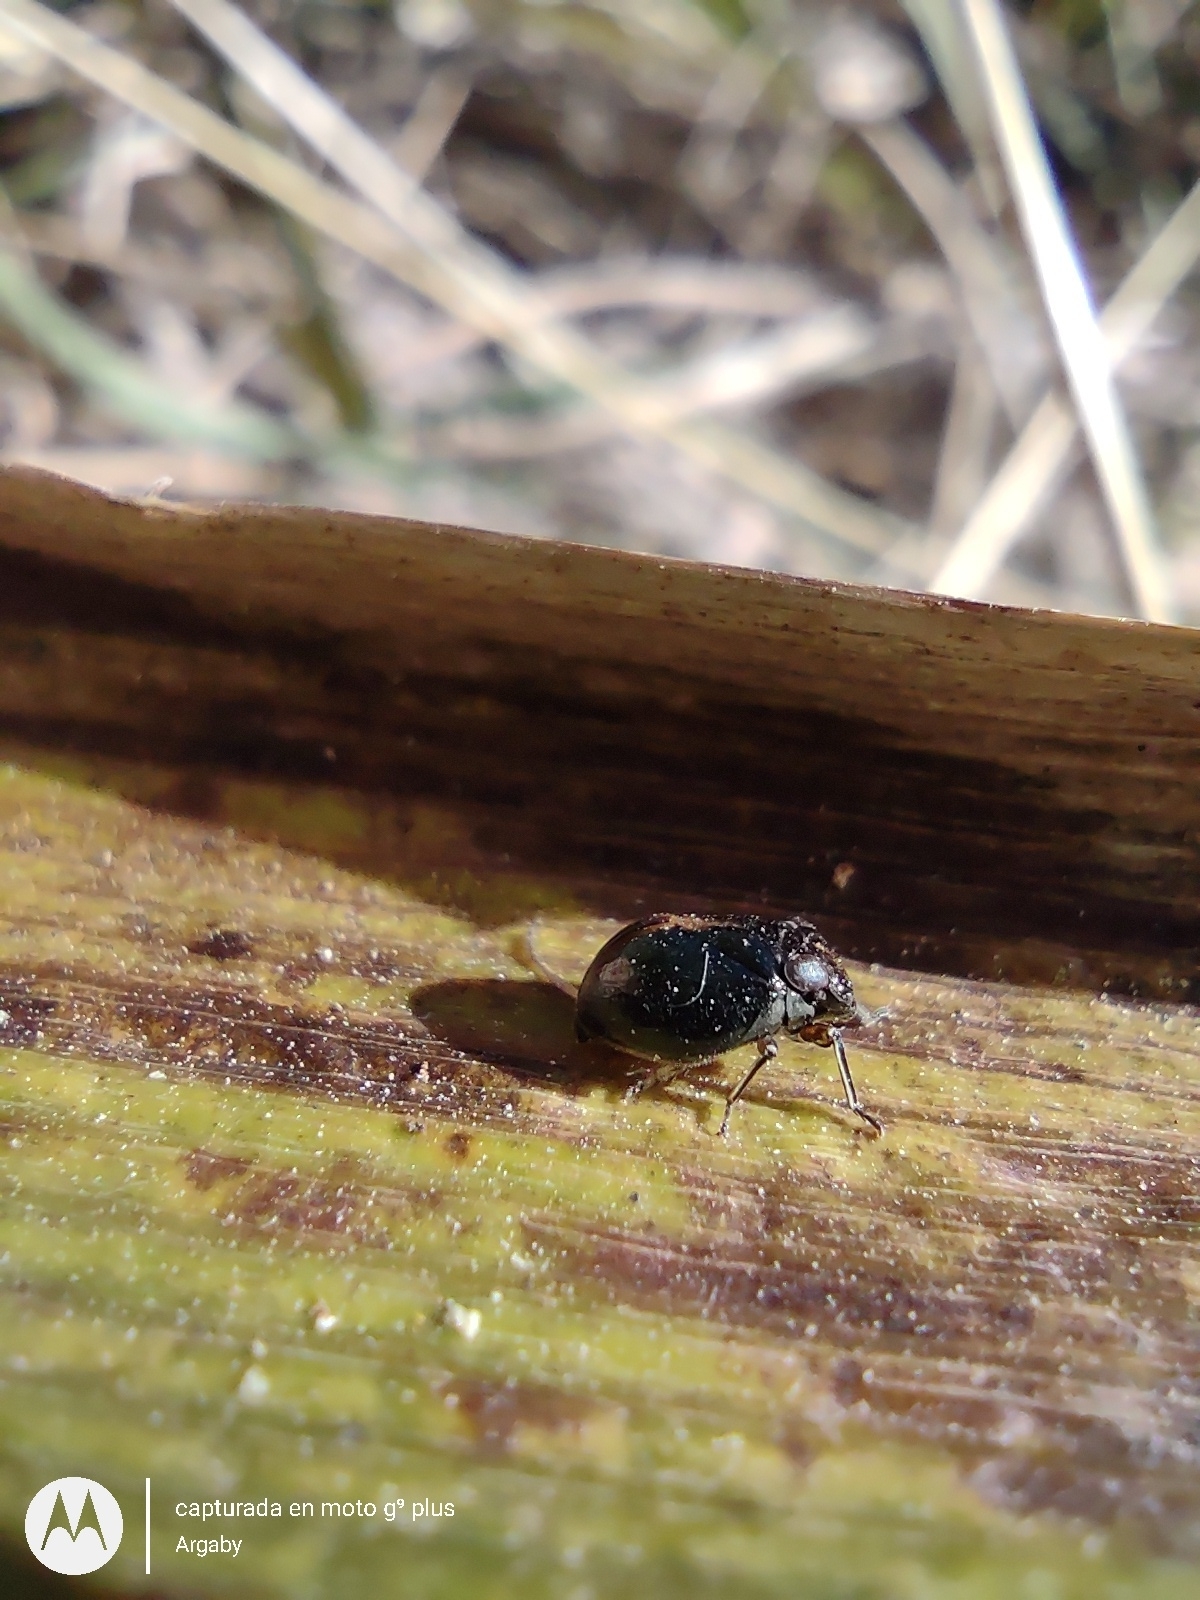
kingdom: Animalia
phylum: Arthropoda
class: Insecta
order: Hemiptera
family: Issidae
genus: Argepara
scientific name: Argepara lyra
